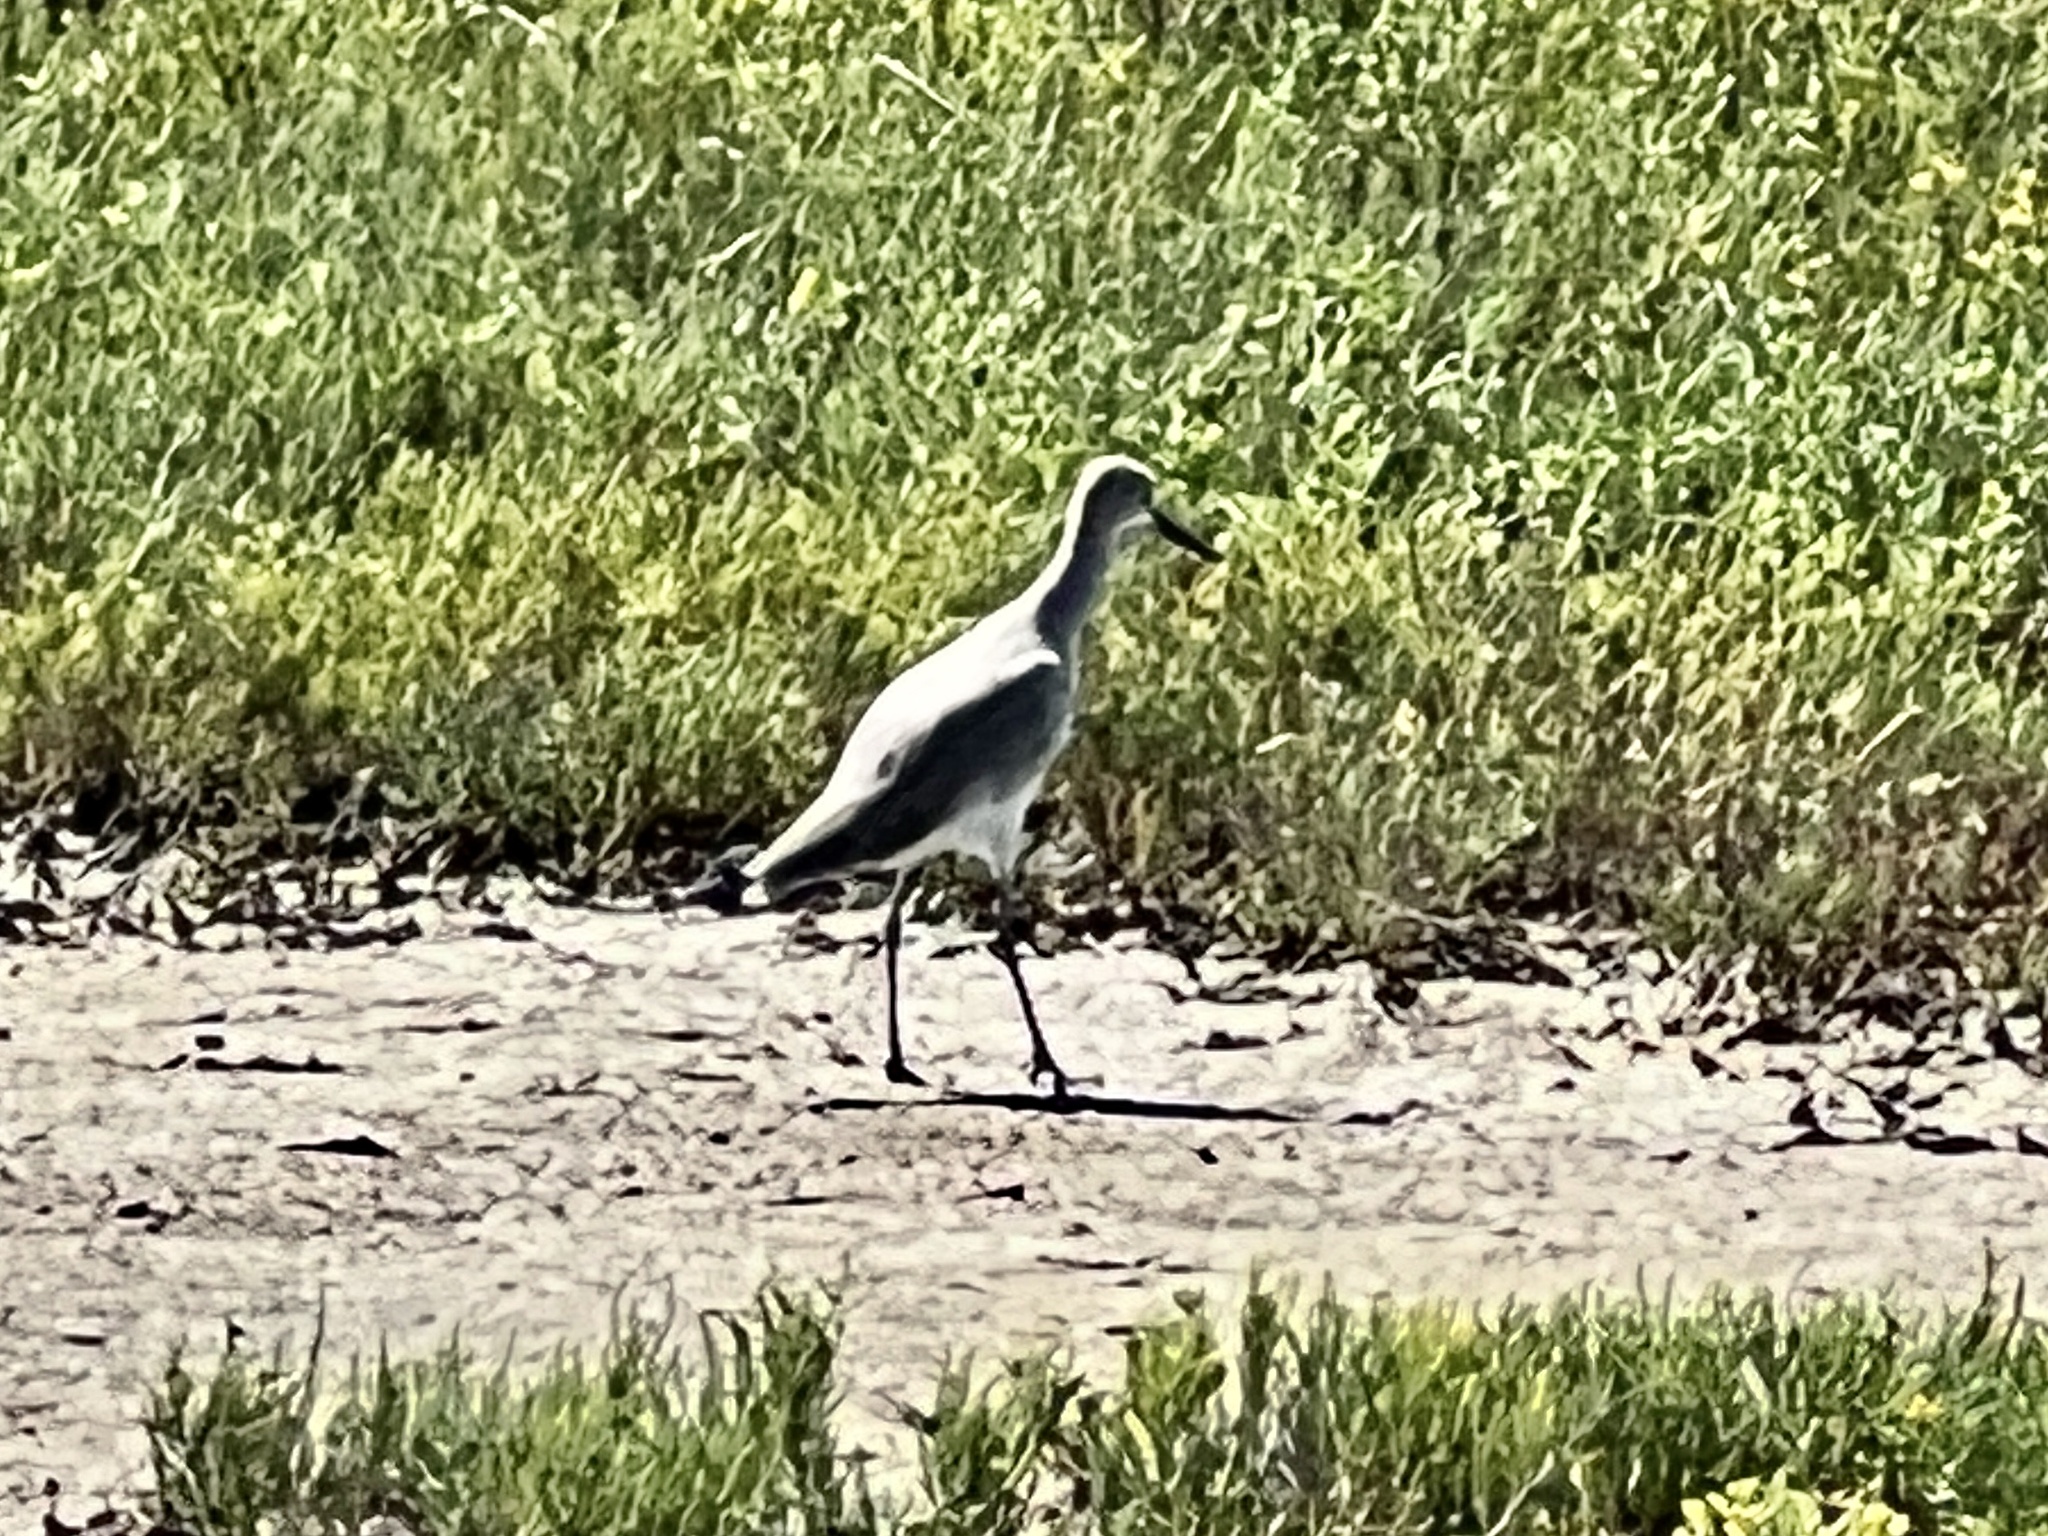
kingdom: Animalia
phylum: Chordata
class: Aves
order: Charadriiformes
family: Scolopacidae
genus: Tringa
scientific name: Tringa semipalmata
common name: Willet
